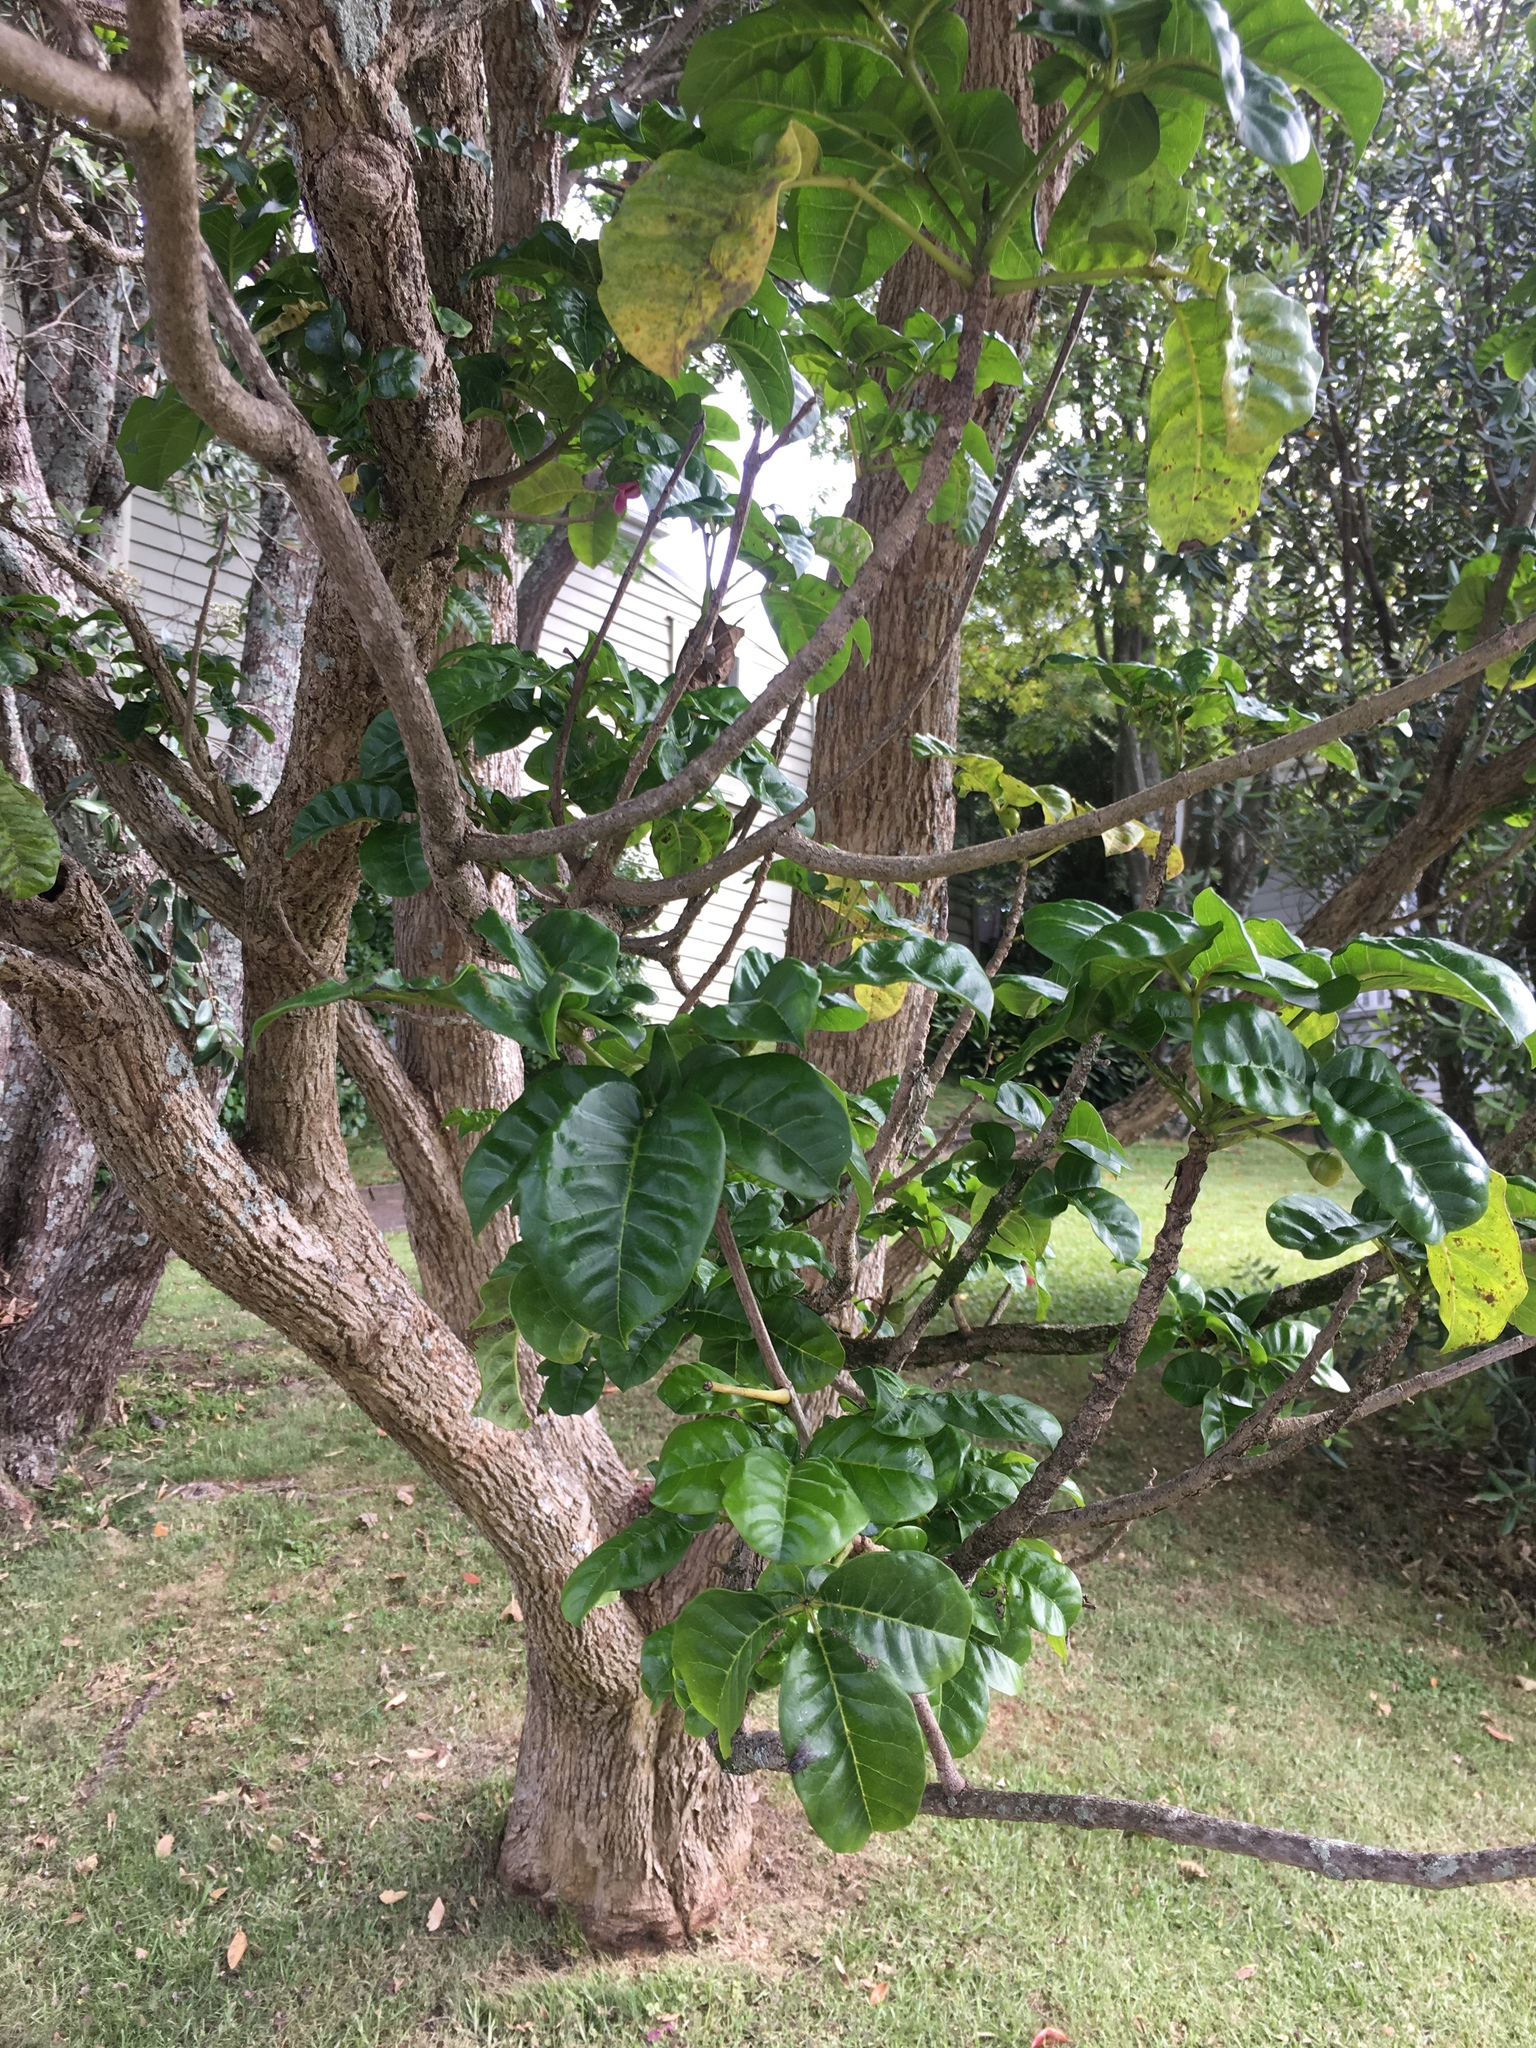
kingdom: Plantae
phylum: Tracheophyta
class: Magnoliopsida
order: Lamiales
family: Lamiaceae
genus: Vitex
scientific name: Vitex lucens
